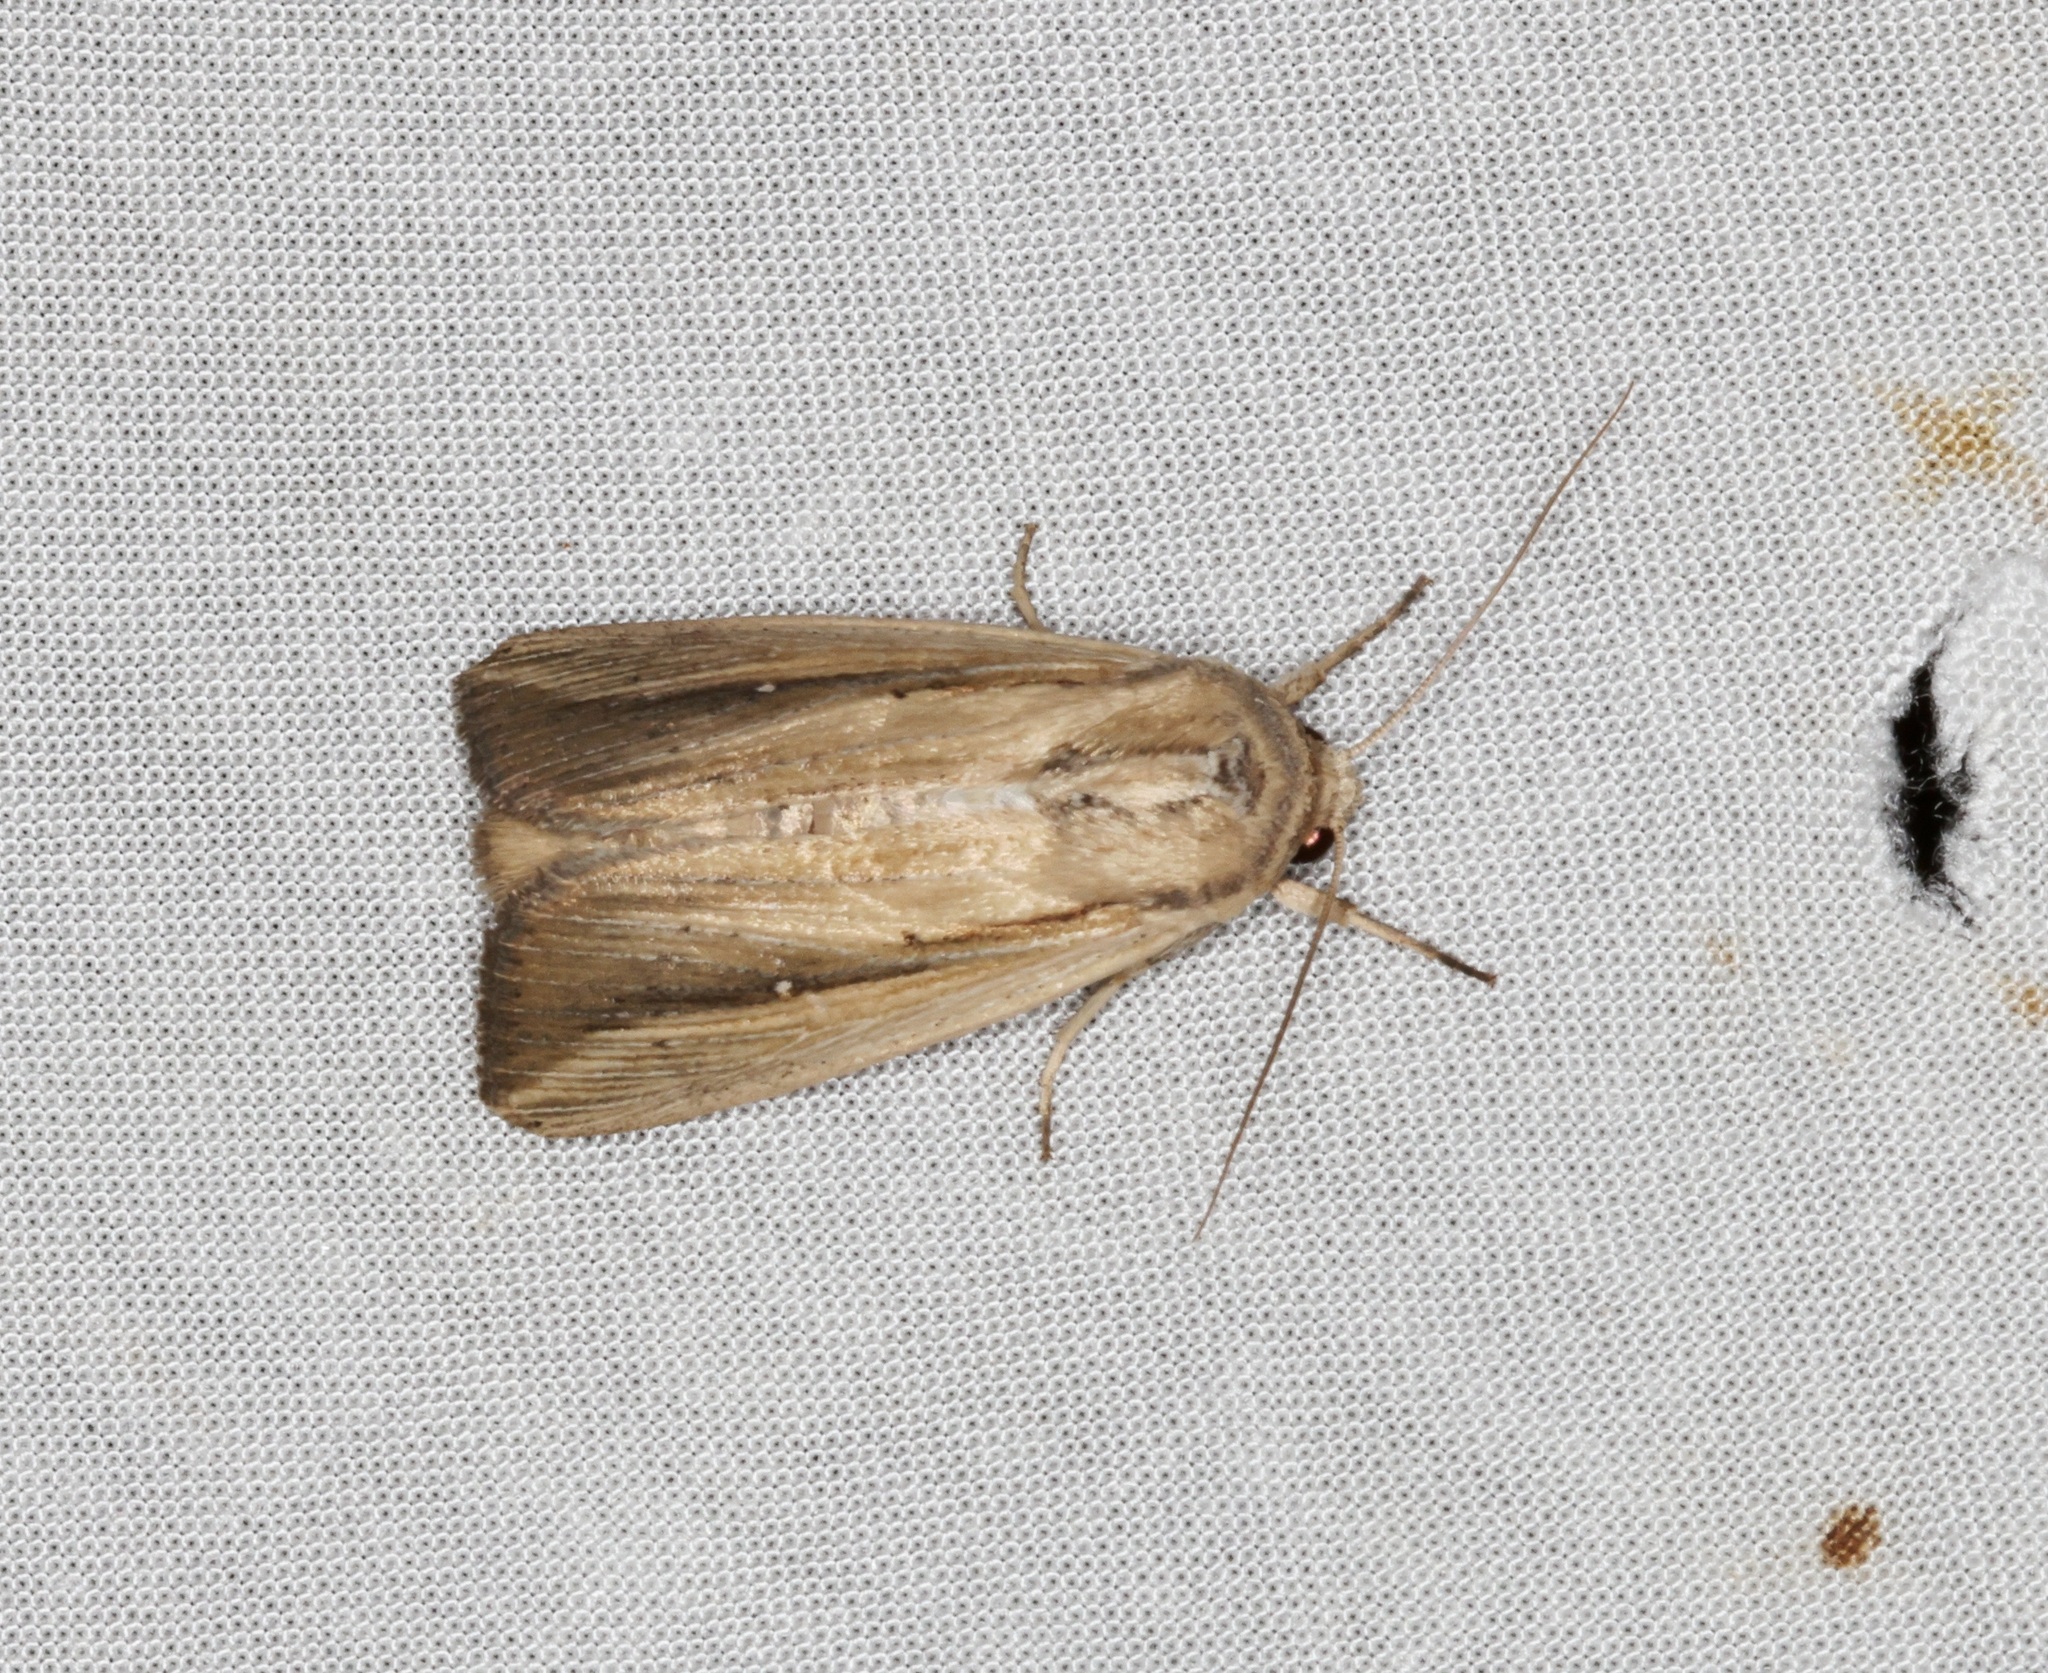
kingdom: Animalia
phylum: Arthropoda
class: Insecta
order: Lepidoptera
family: Noctuidae
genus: Leucania
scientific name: Leucania loreyi
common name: The cosmopolitan
